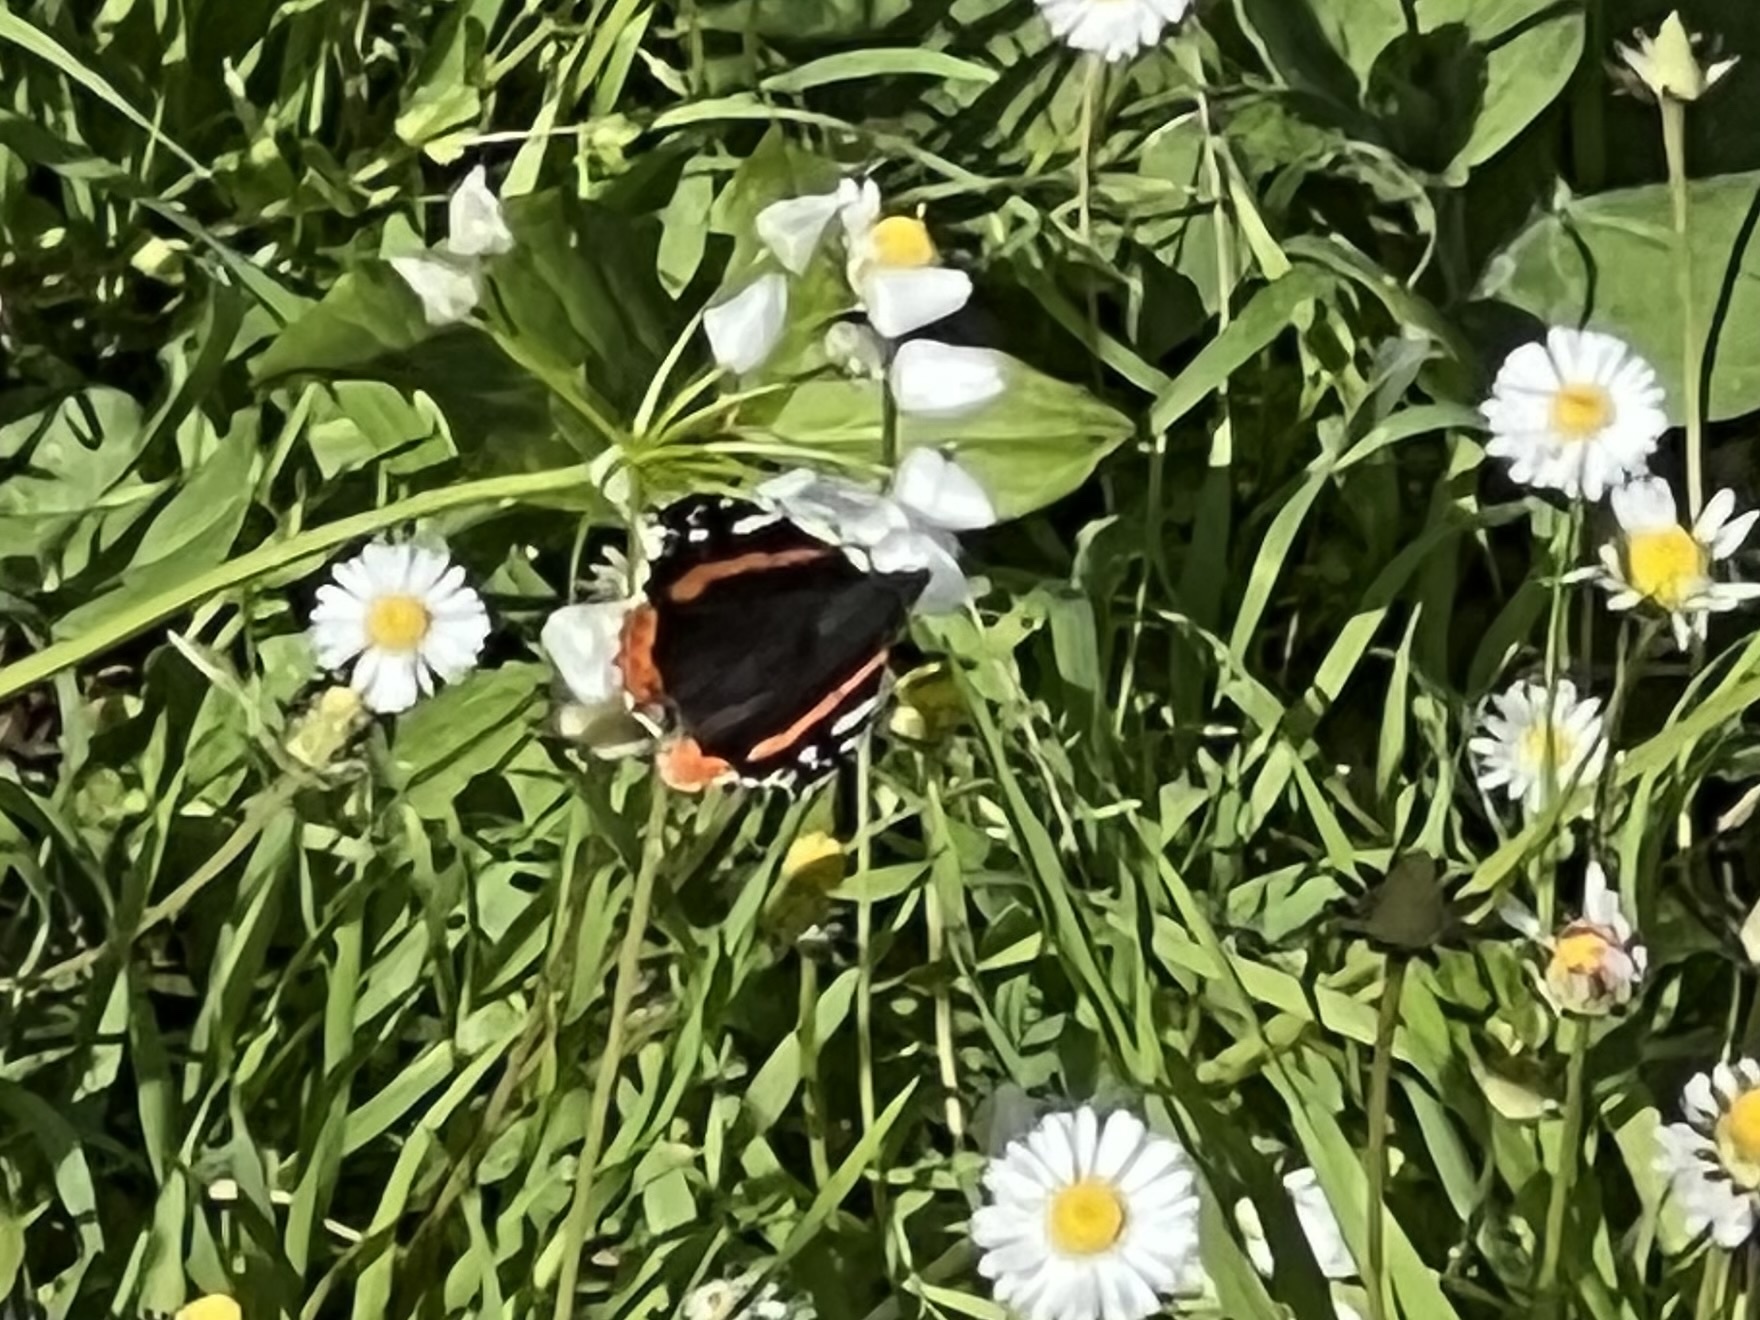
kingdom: Animalia
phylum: Arthropoda
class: Insecta
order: Lepidoptera
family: Nymphalidae
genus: Vanessa
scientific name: Vanessa atalanta
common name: Red admiral
